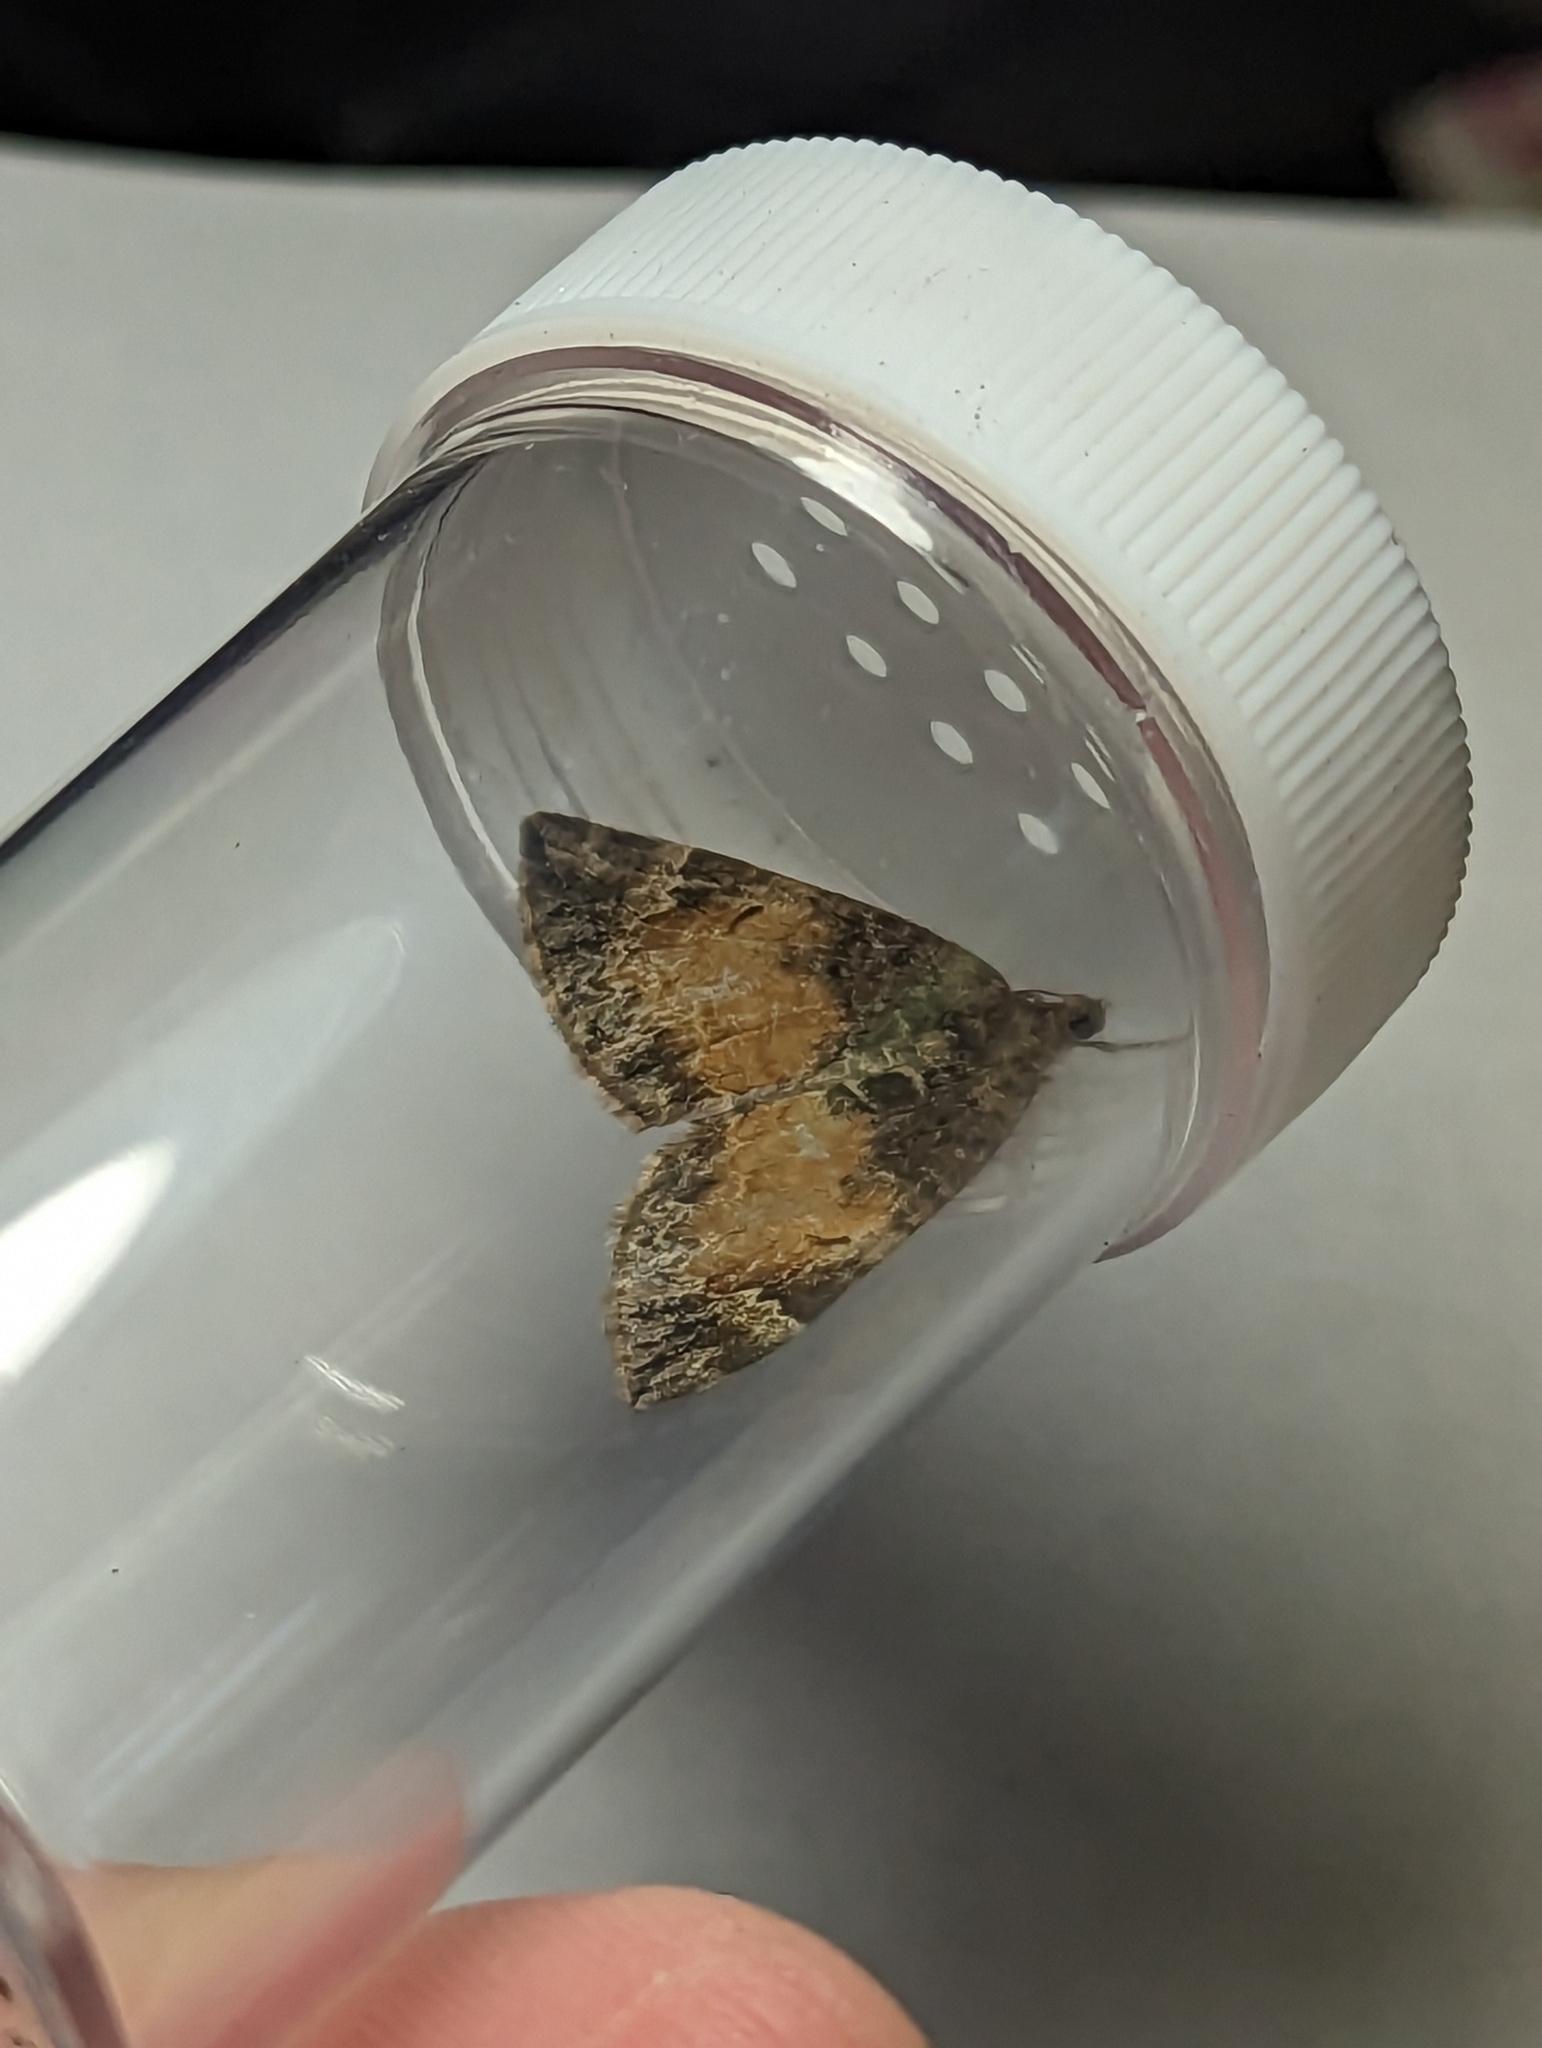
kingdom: Animalia
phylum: Arthropoda
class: Insecta
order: Lepidoptera
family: Geometridae
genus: Dysstroma
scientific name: Dysstroma truncata
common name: Common marbled carpet
